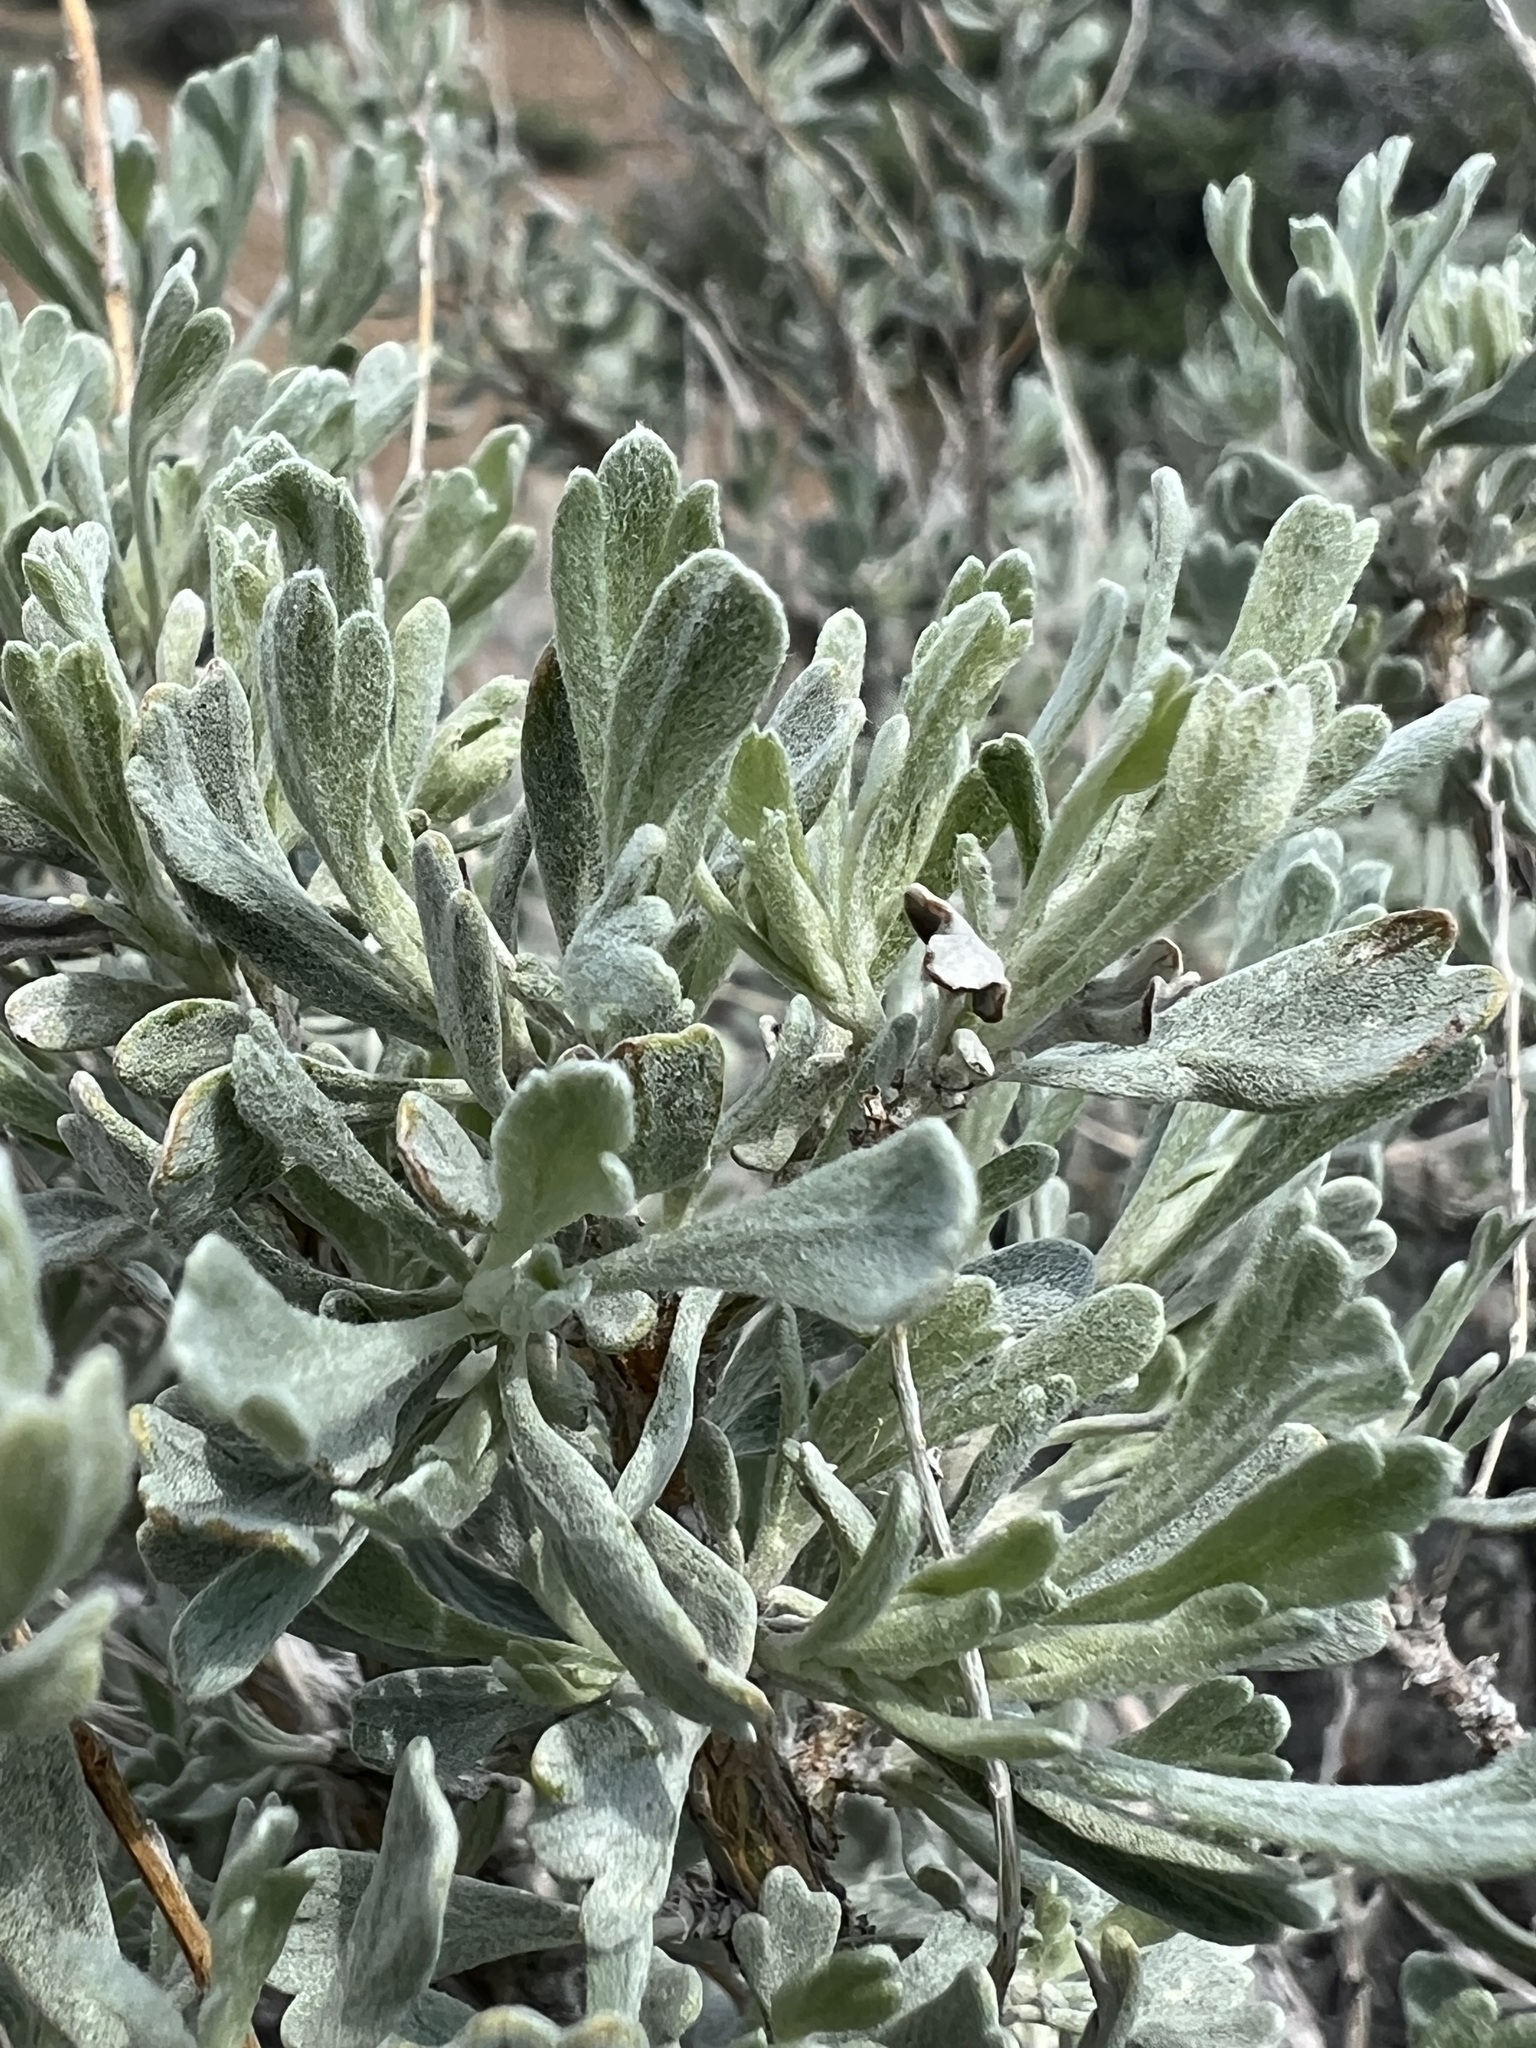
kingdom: Plantae
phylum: Tracheophyta
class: Magnoliopsida
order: Asterales
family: Asteraceae
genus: Artemisia
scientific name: Artemisia tridentata
